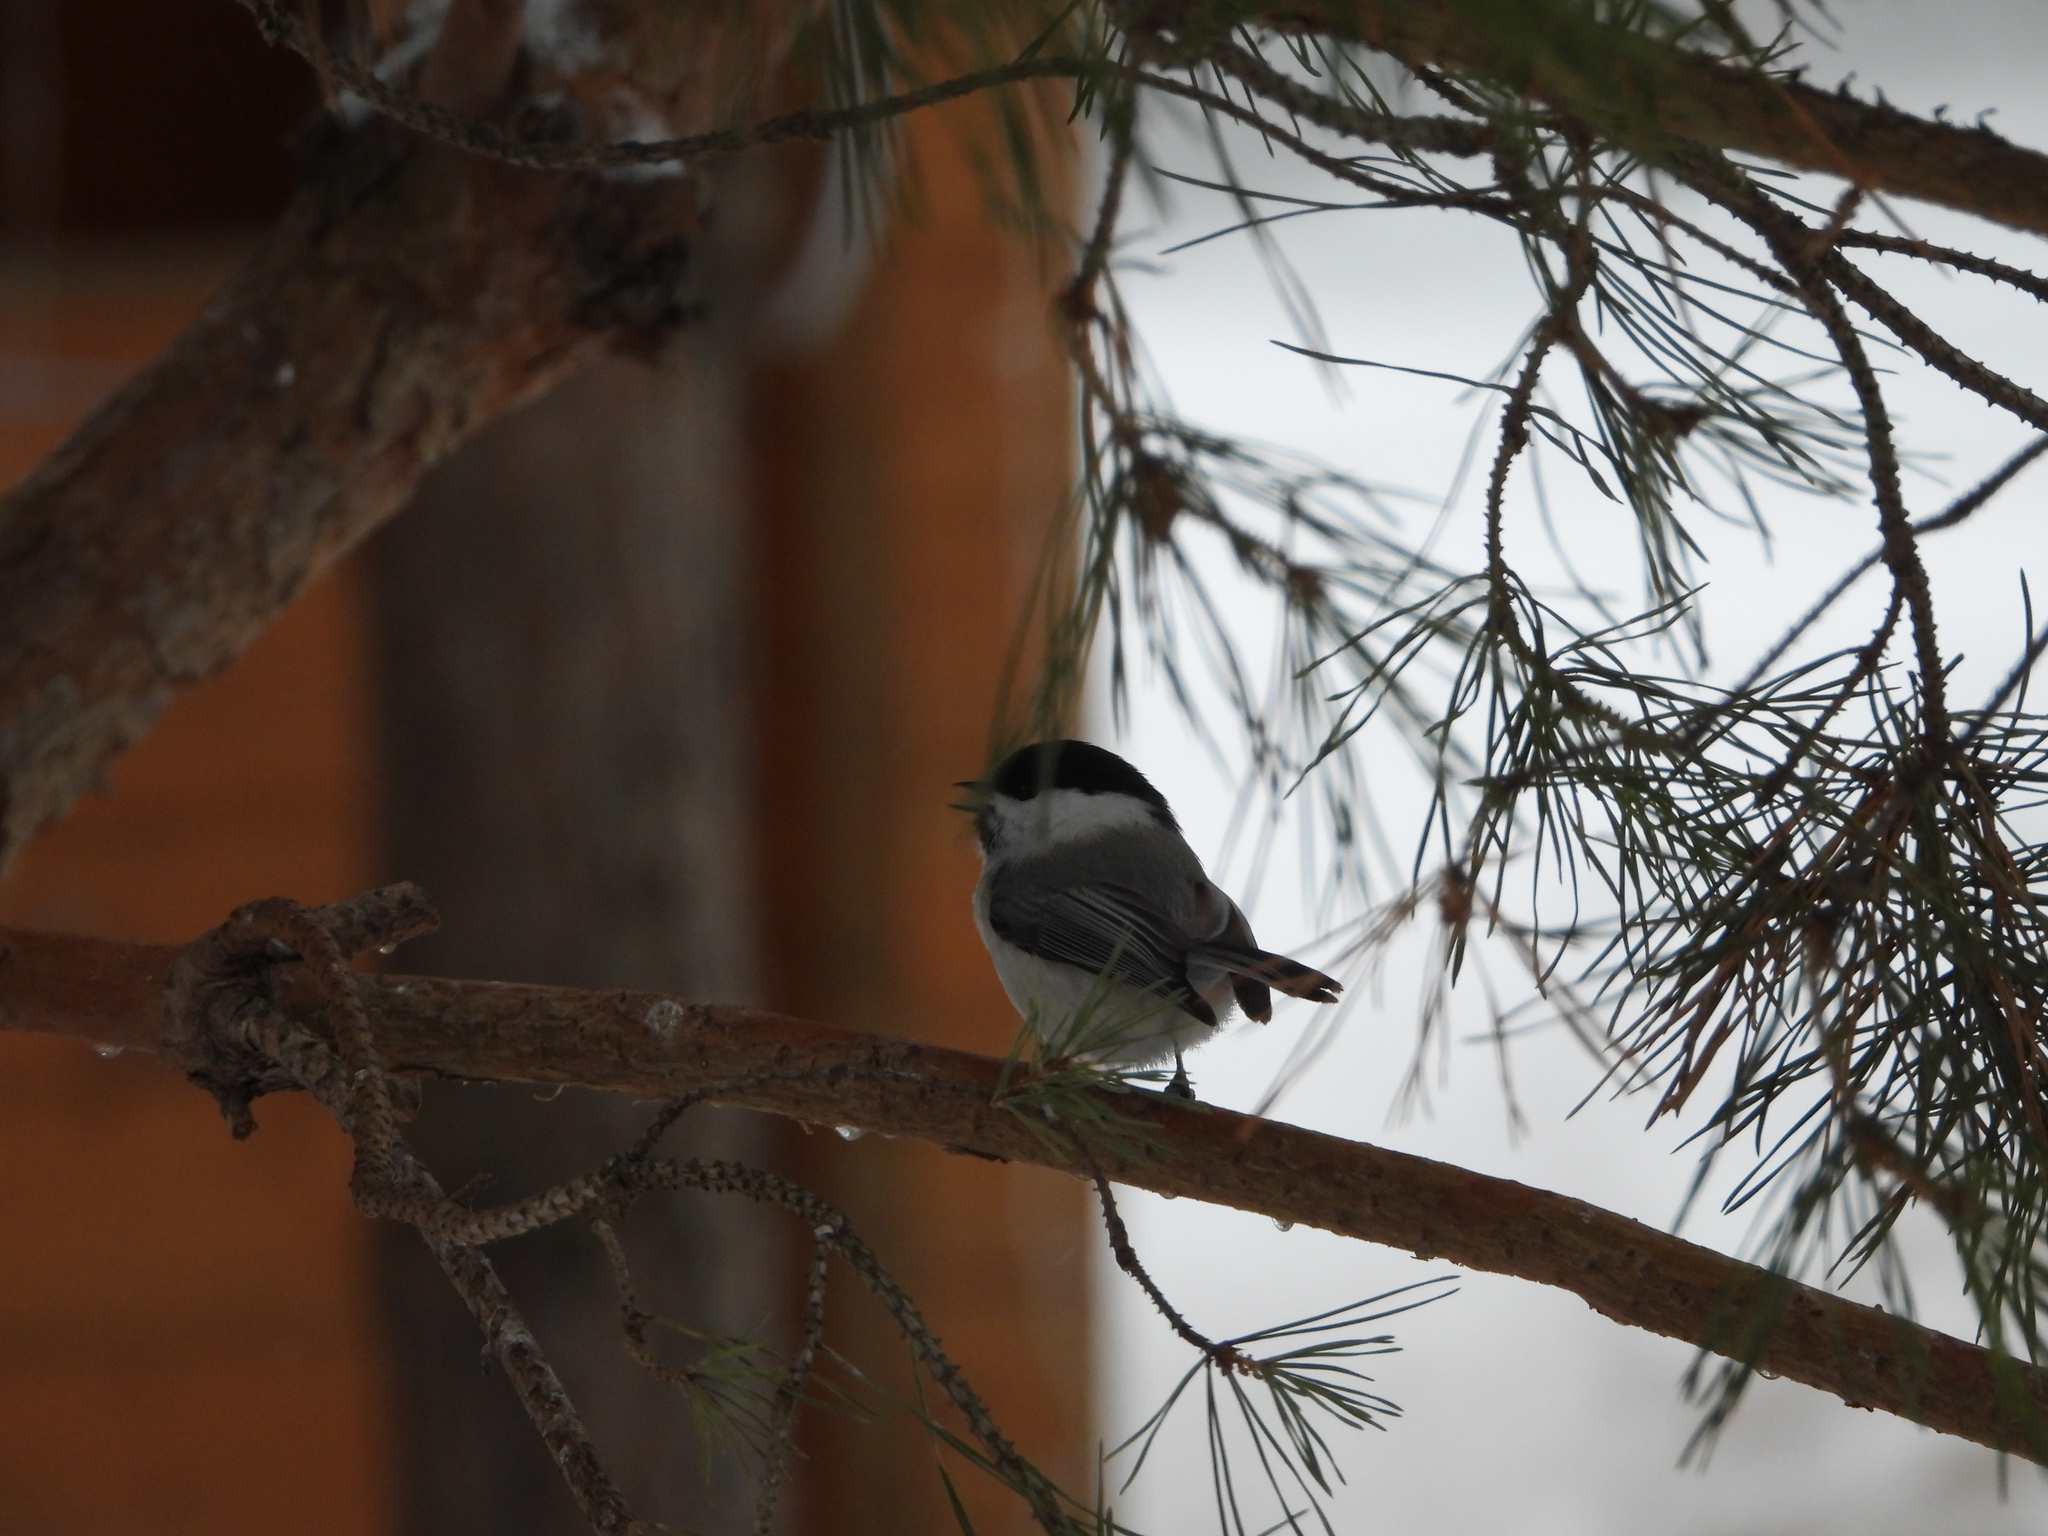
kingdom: Animalia
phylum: Chordata
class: Aves
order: Passeriformes
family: Paridae
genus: Poecile
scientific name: Poecile montanus
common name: Willow tit
